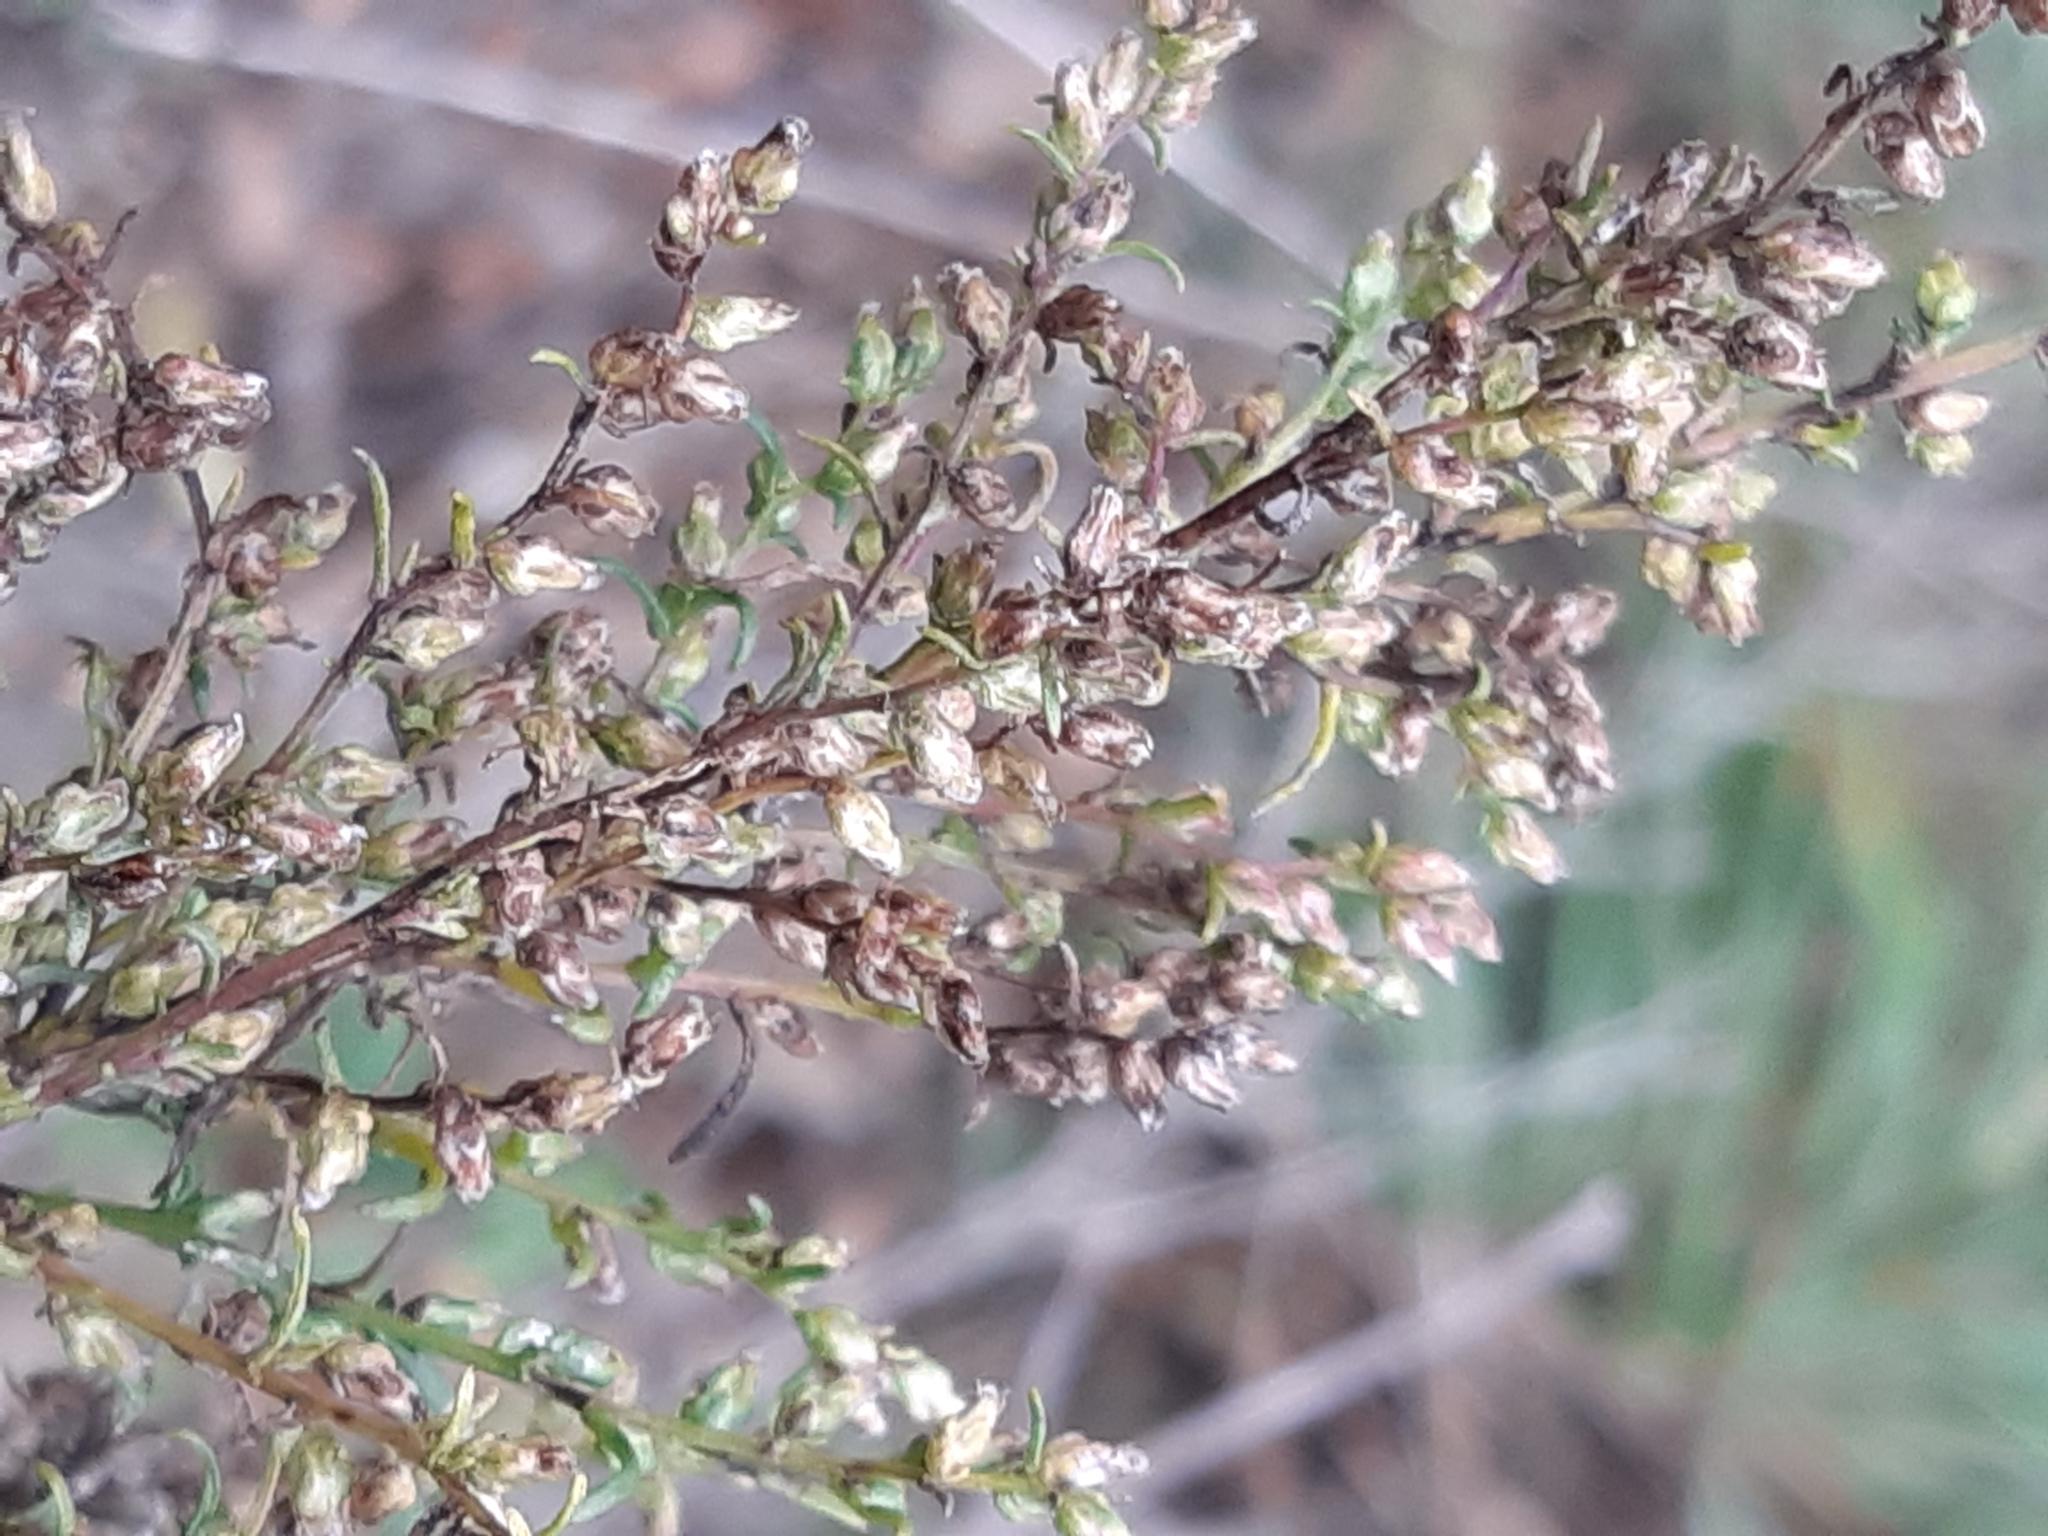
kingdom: Plantae
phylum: Tracheophyta
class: Magnoliopsida
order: Asterales
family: Asteraceae
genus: Artemisia
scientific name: Artemisia campestris
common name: Field wormwood
